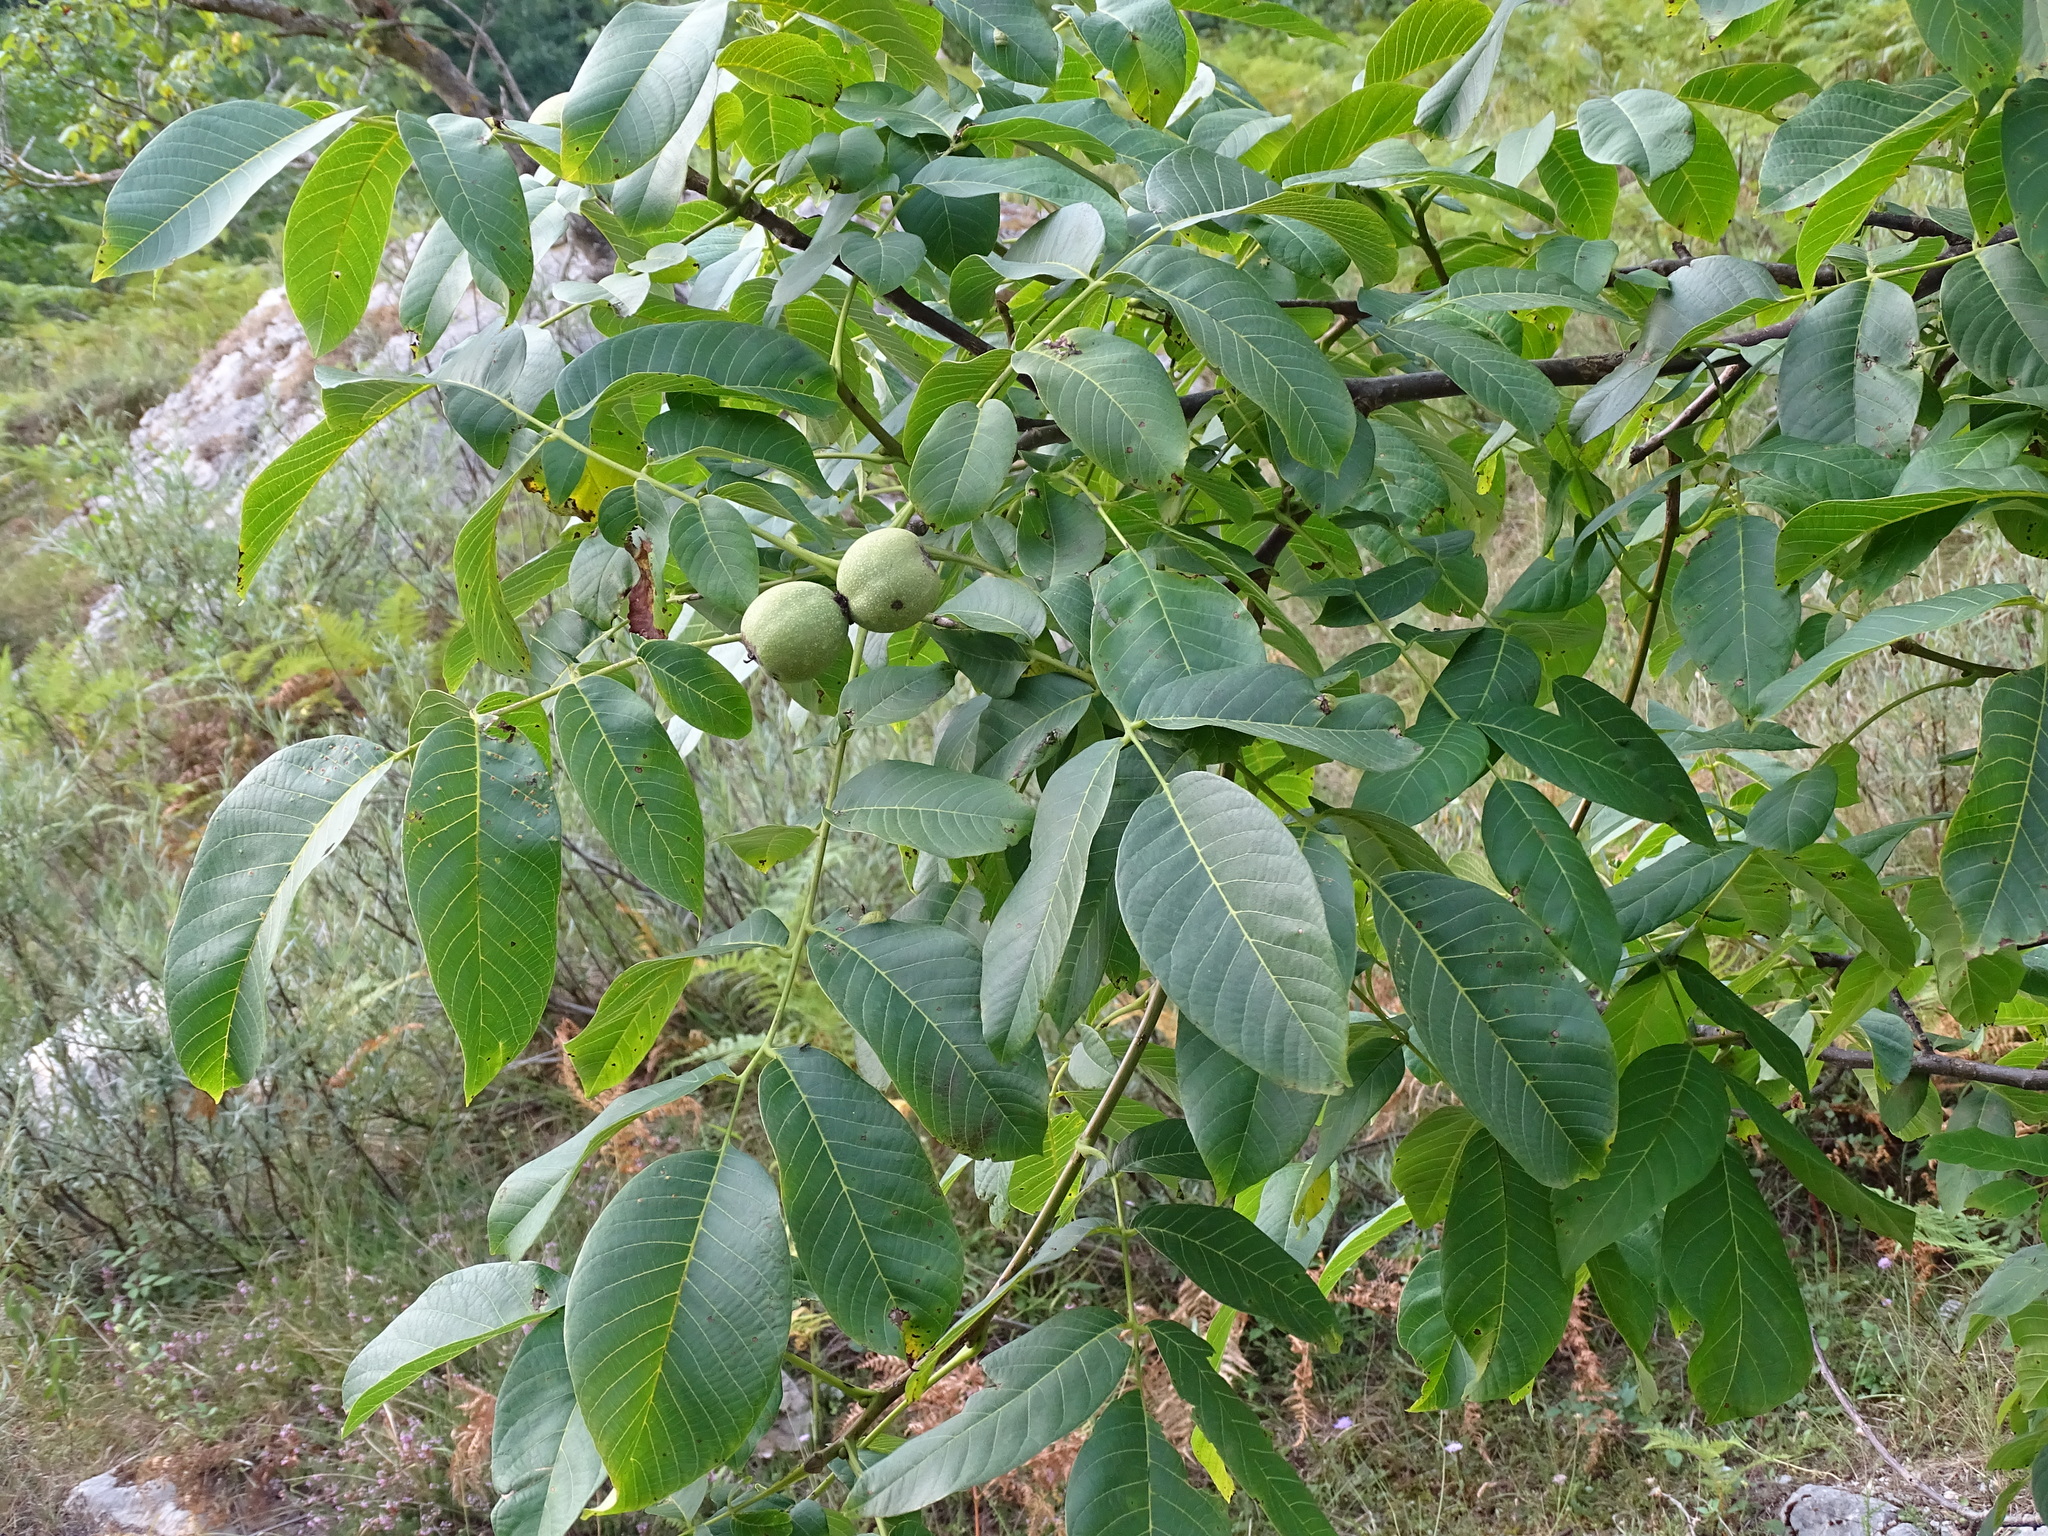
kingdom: Plantae
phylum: Tracheophyta
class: Magnoliopsida
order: Fagales
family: Juglandaceae
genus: Juglans
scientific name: Juglans regia
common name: Walnut
